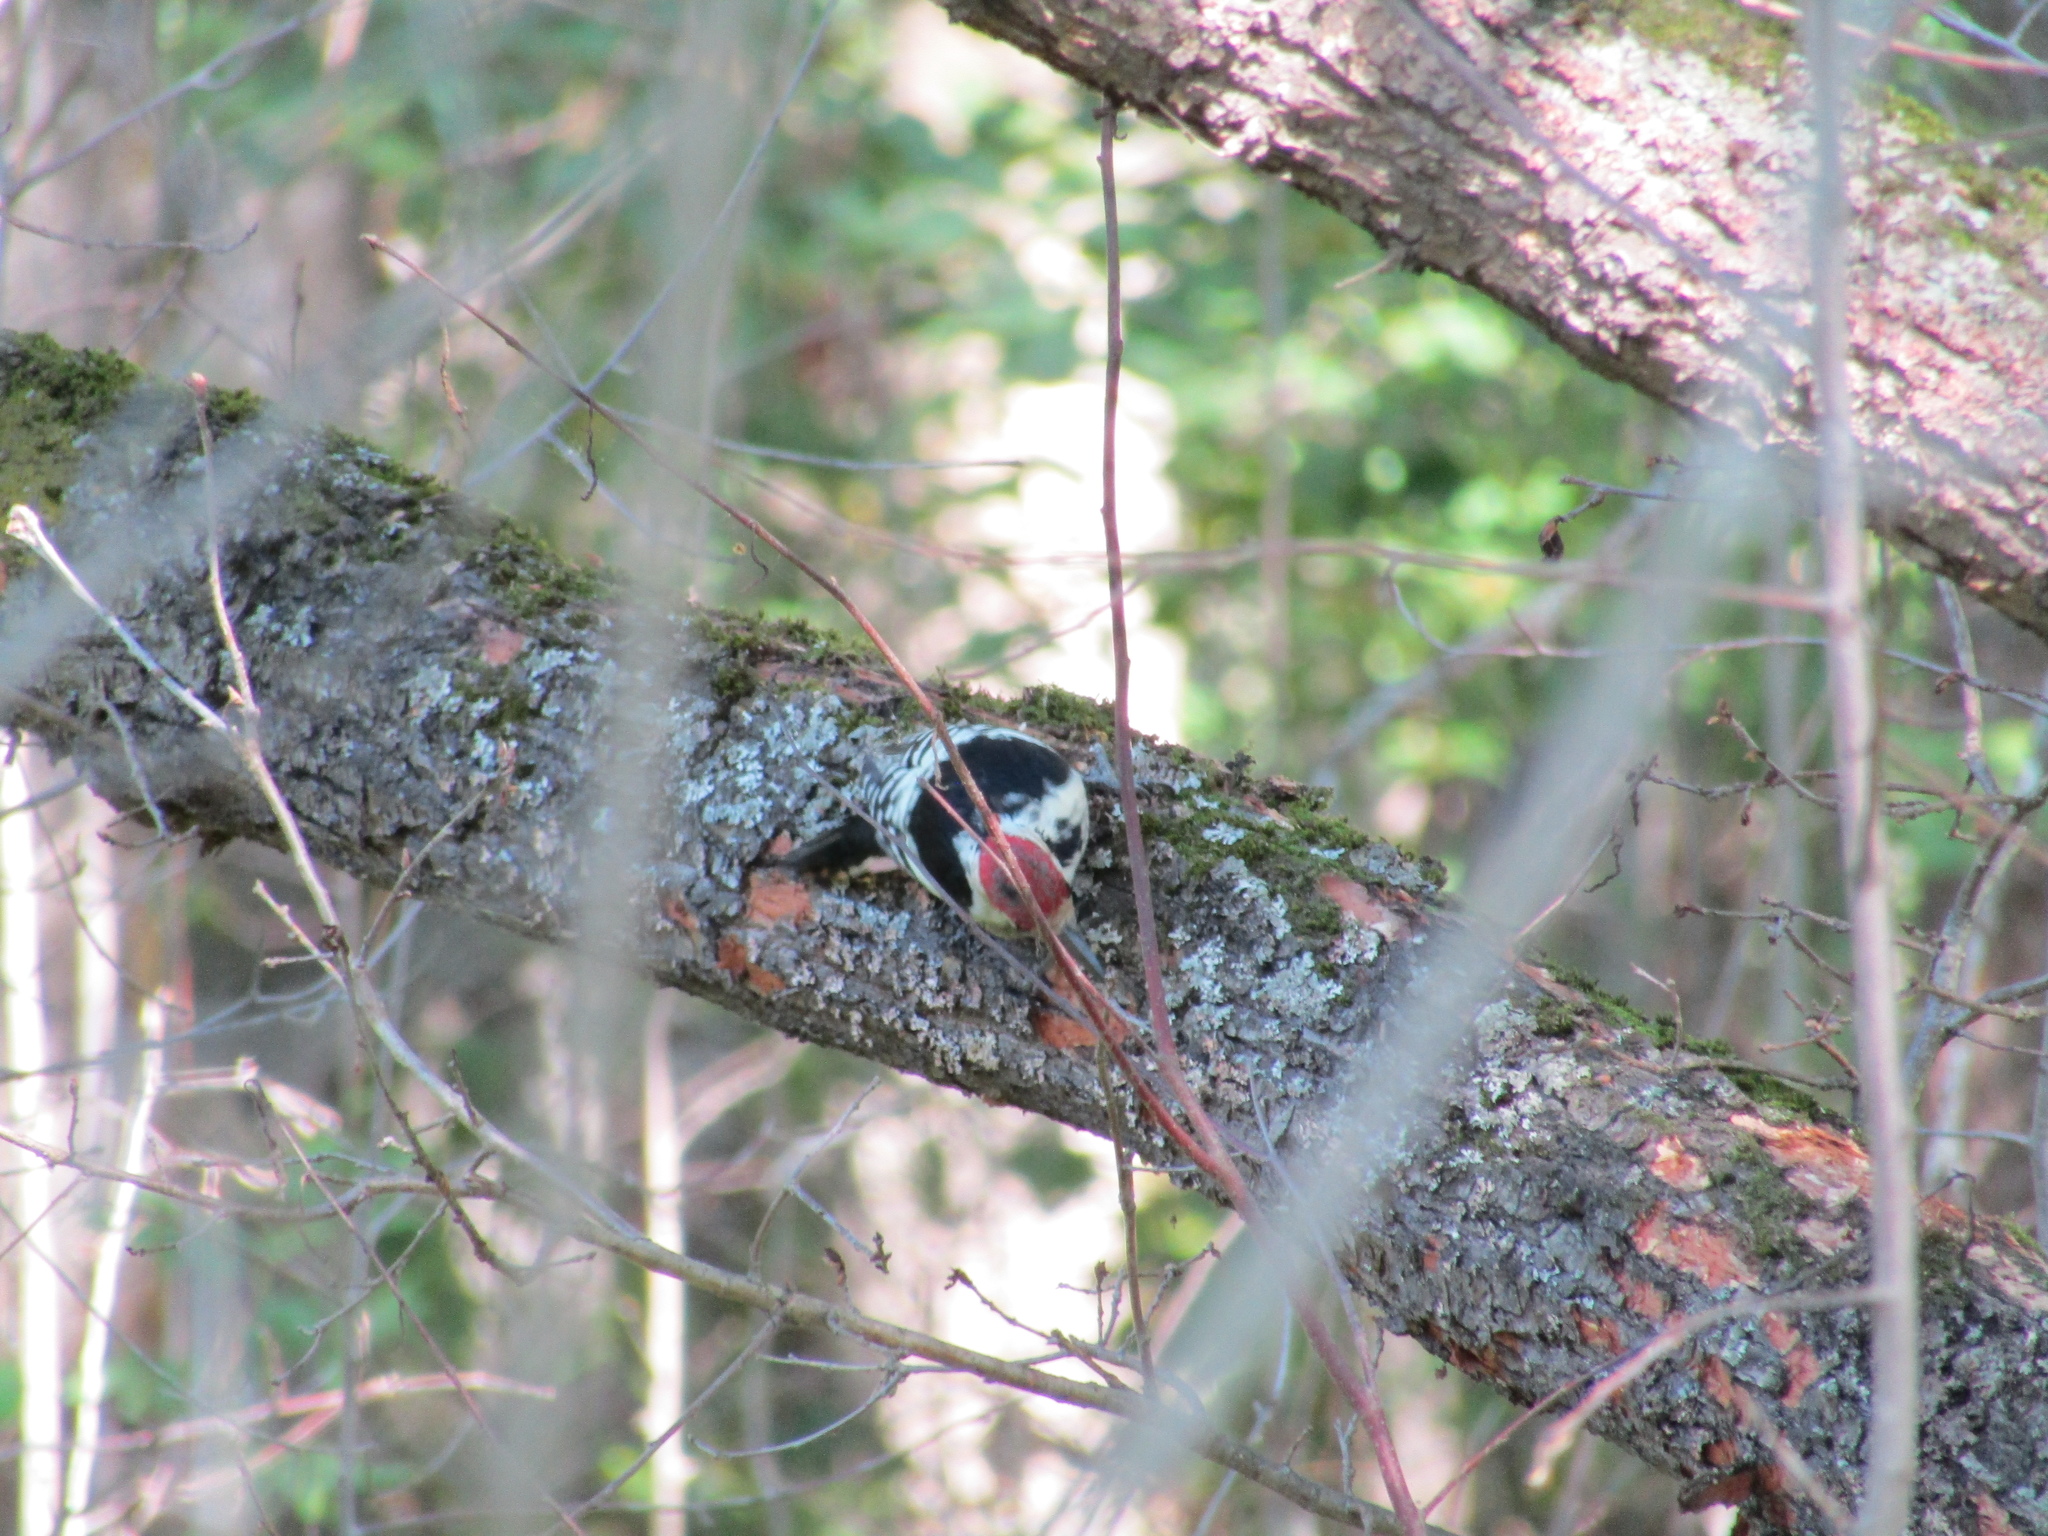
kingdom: Animalia
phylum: Chordata
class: Aves
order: Piciformes
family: Picidae
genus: Dendrocopos
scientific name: Dendrocopos leucotos
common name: White-backed woodpecker
